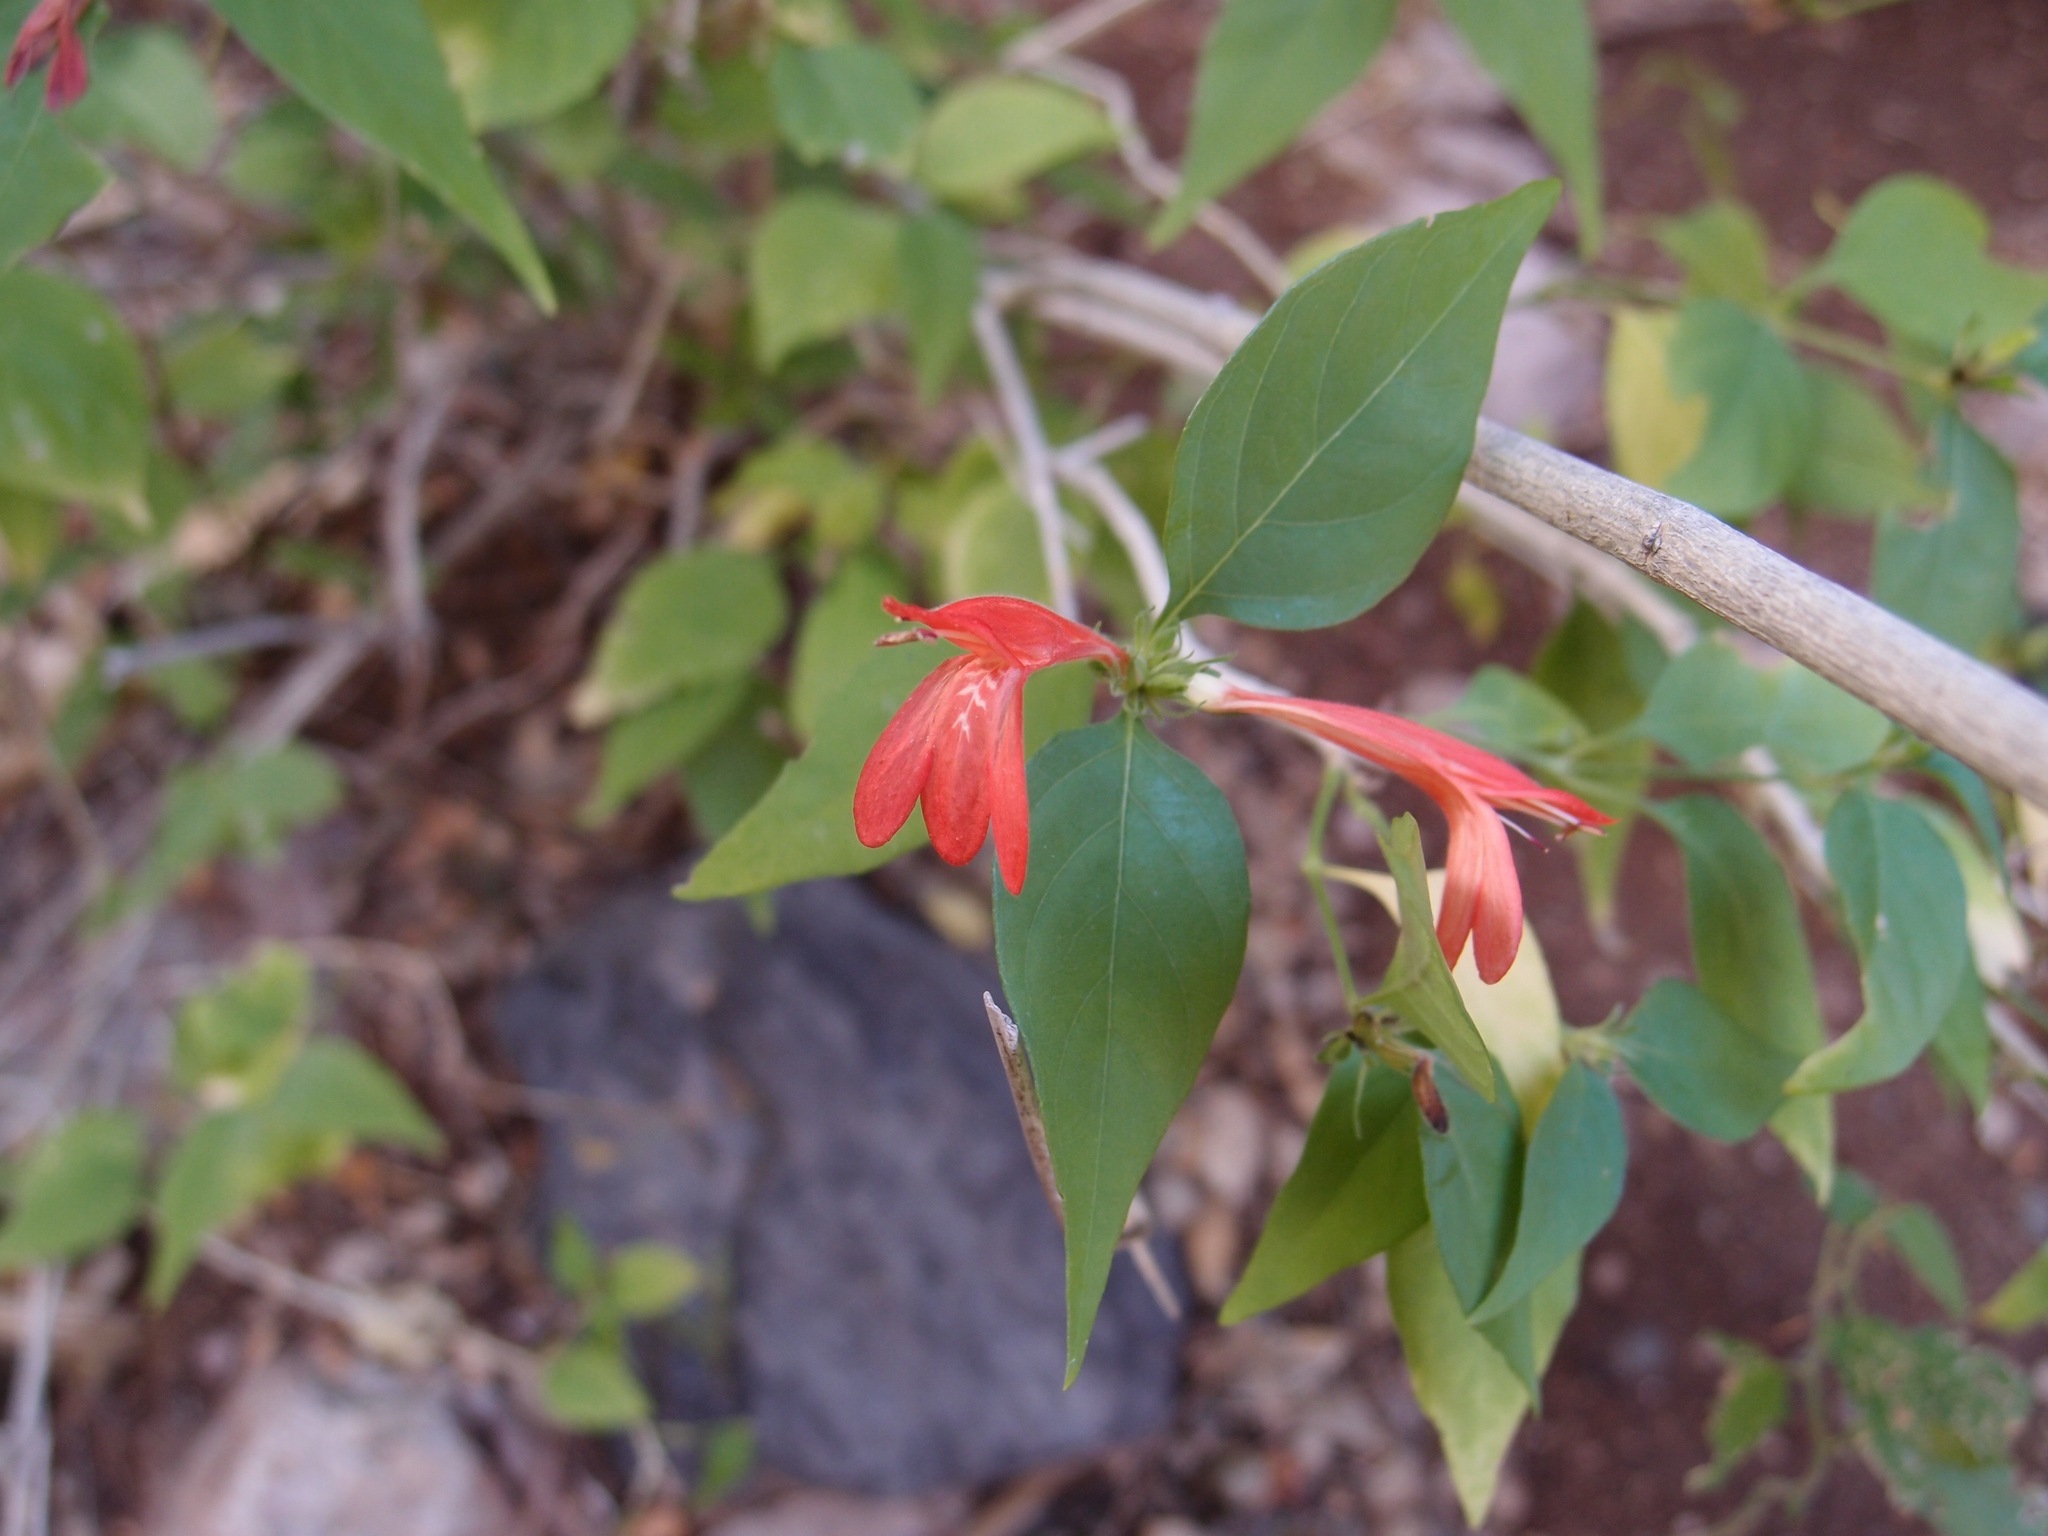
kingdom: Plantae
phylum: Tracheophyta
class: Magnoliopsida
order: Lamiales
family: Acanthaceae
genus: Dianthera
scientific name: Dianthera candicans
